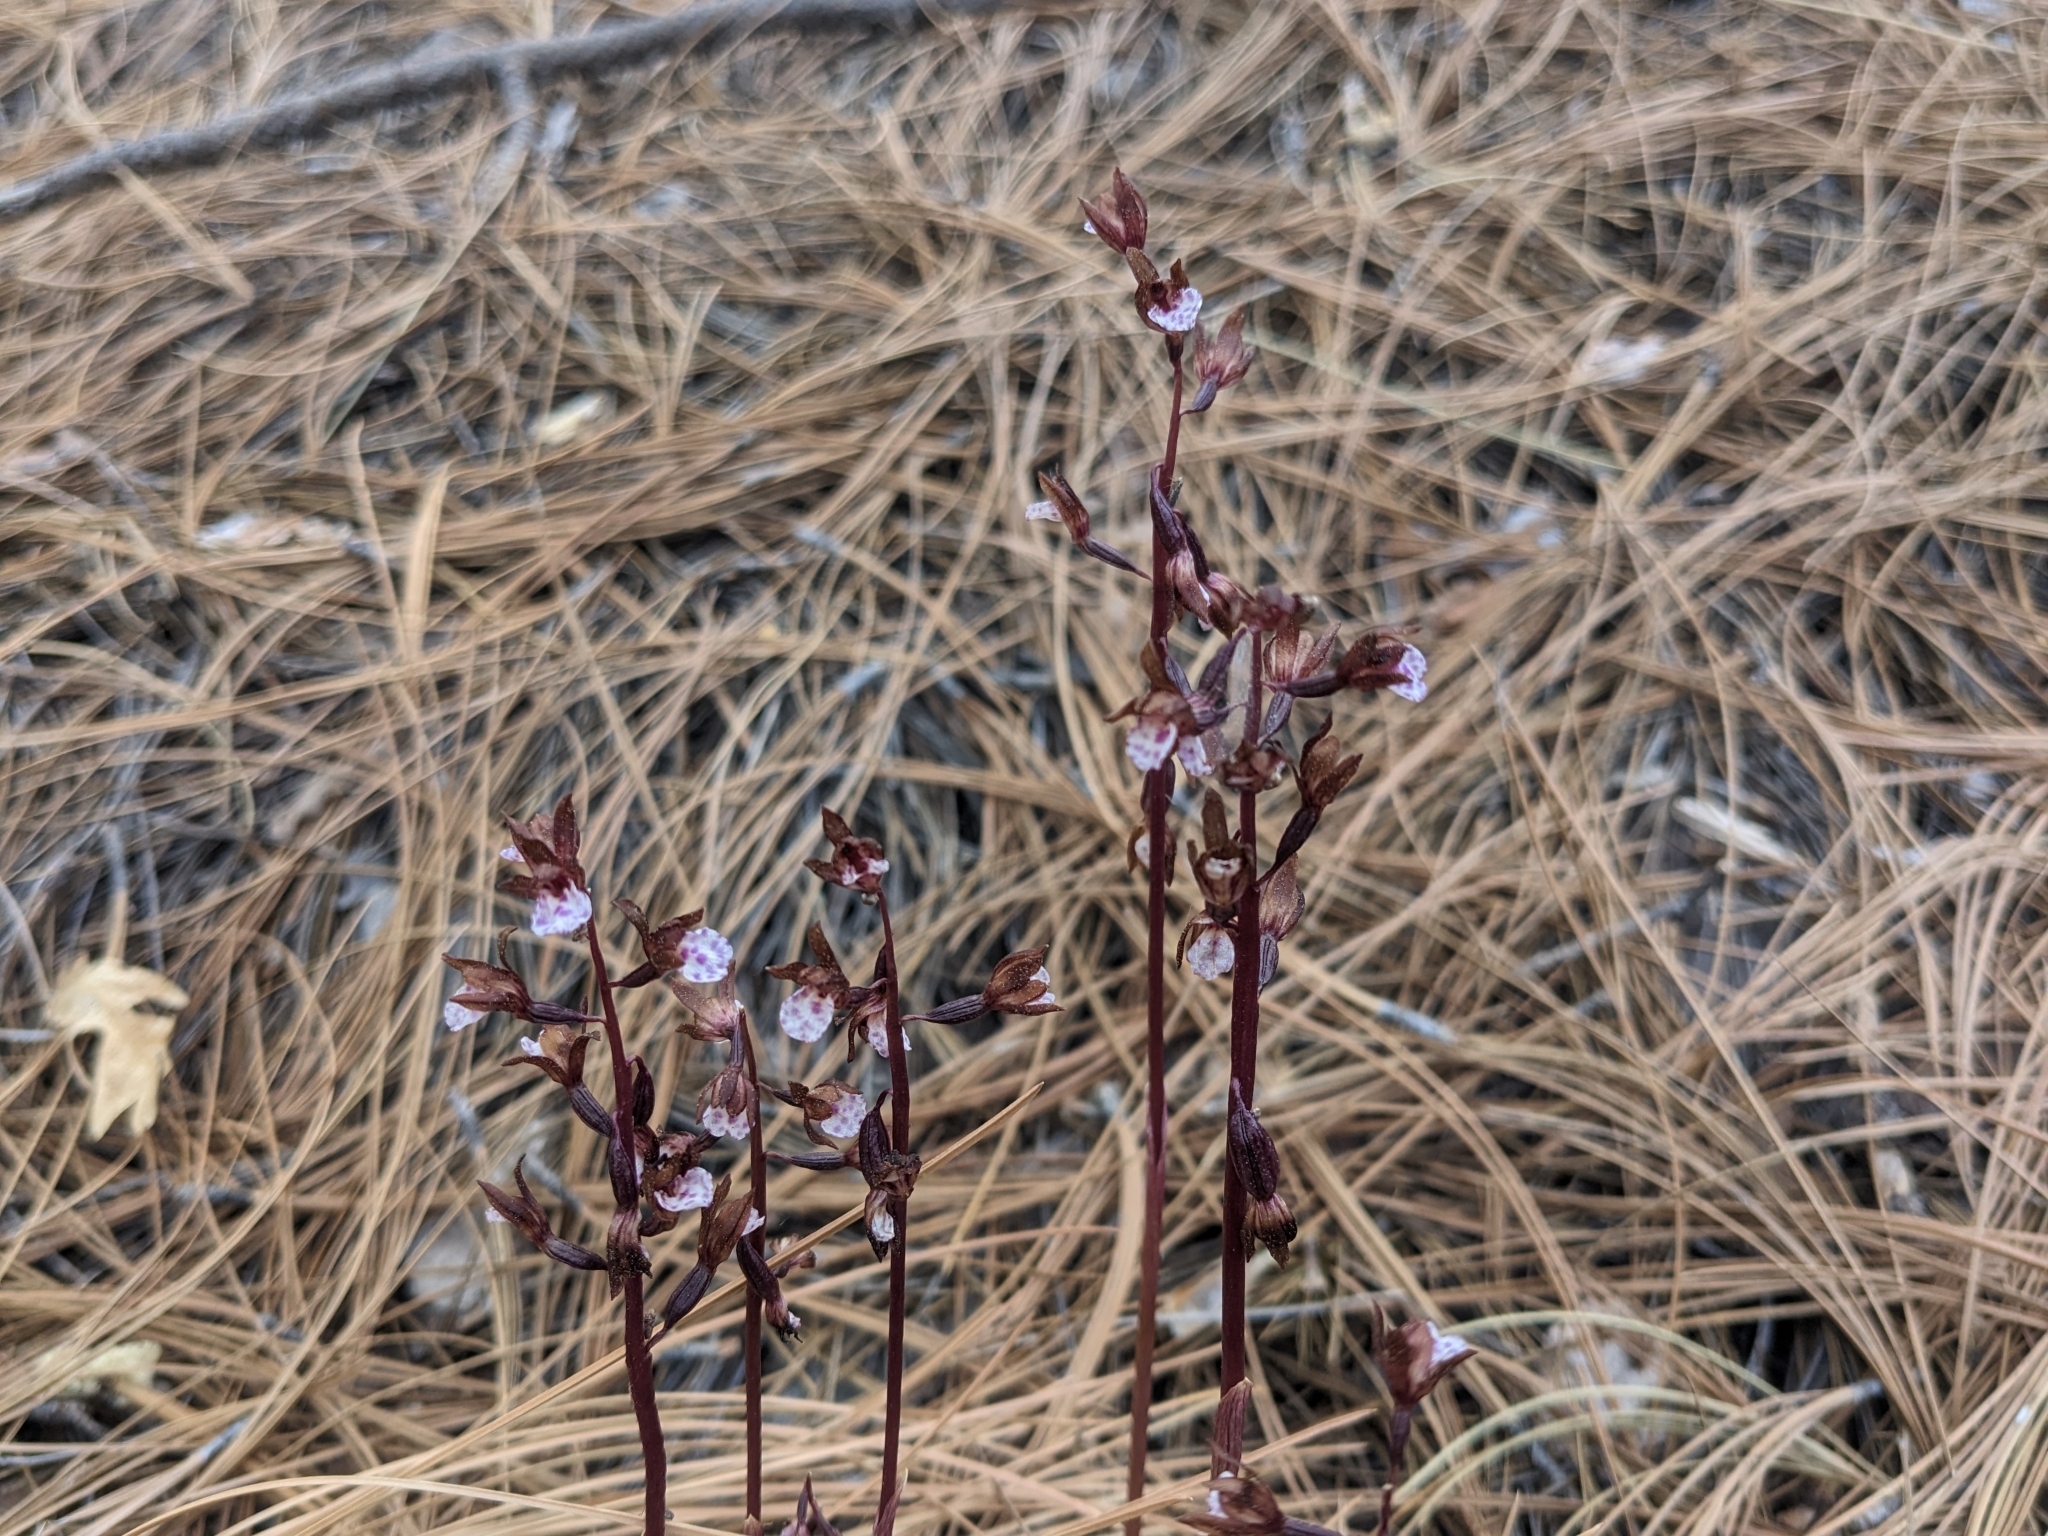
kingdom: Plantae
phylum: Tracheophyta
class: Liliopsida
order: Asparagales
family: Orchidaceae
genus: Corallorhiza
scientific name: Corallorhiza wisteriana
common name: Spring coralroot
